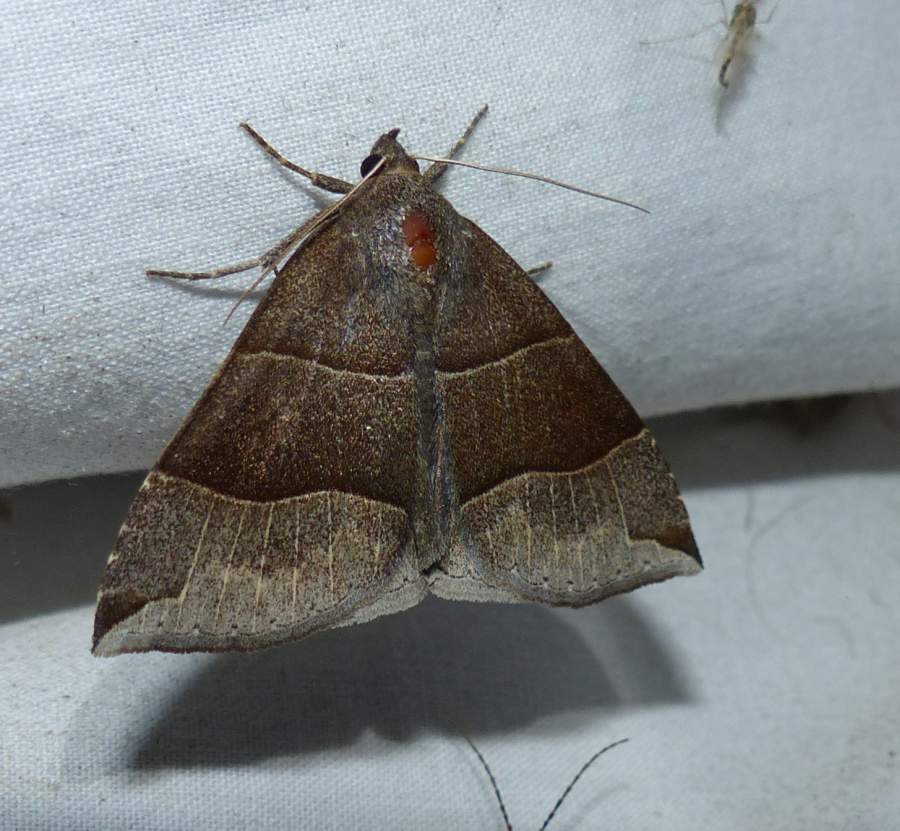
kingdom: Animalia
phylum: Arthropoda
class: Insecta
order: Lepidoptera
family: Erebidae
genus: Parallelia
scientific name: Parallelia bistriaris
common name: Maple looper moth
